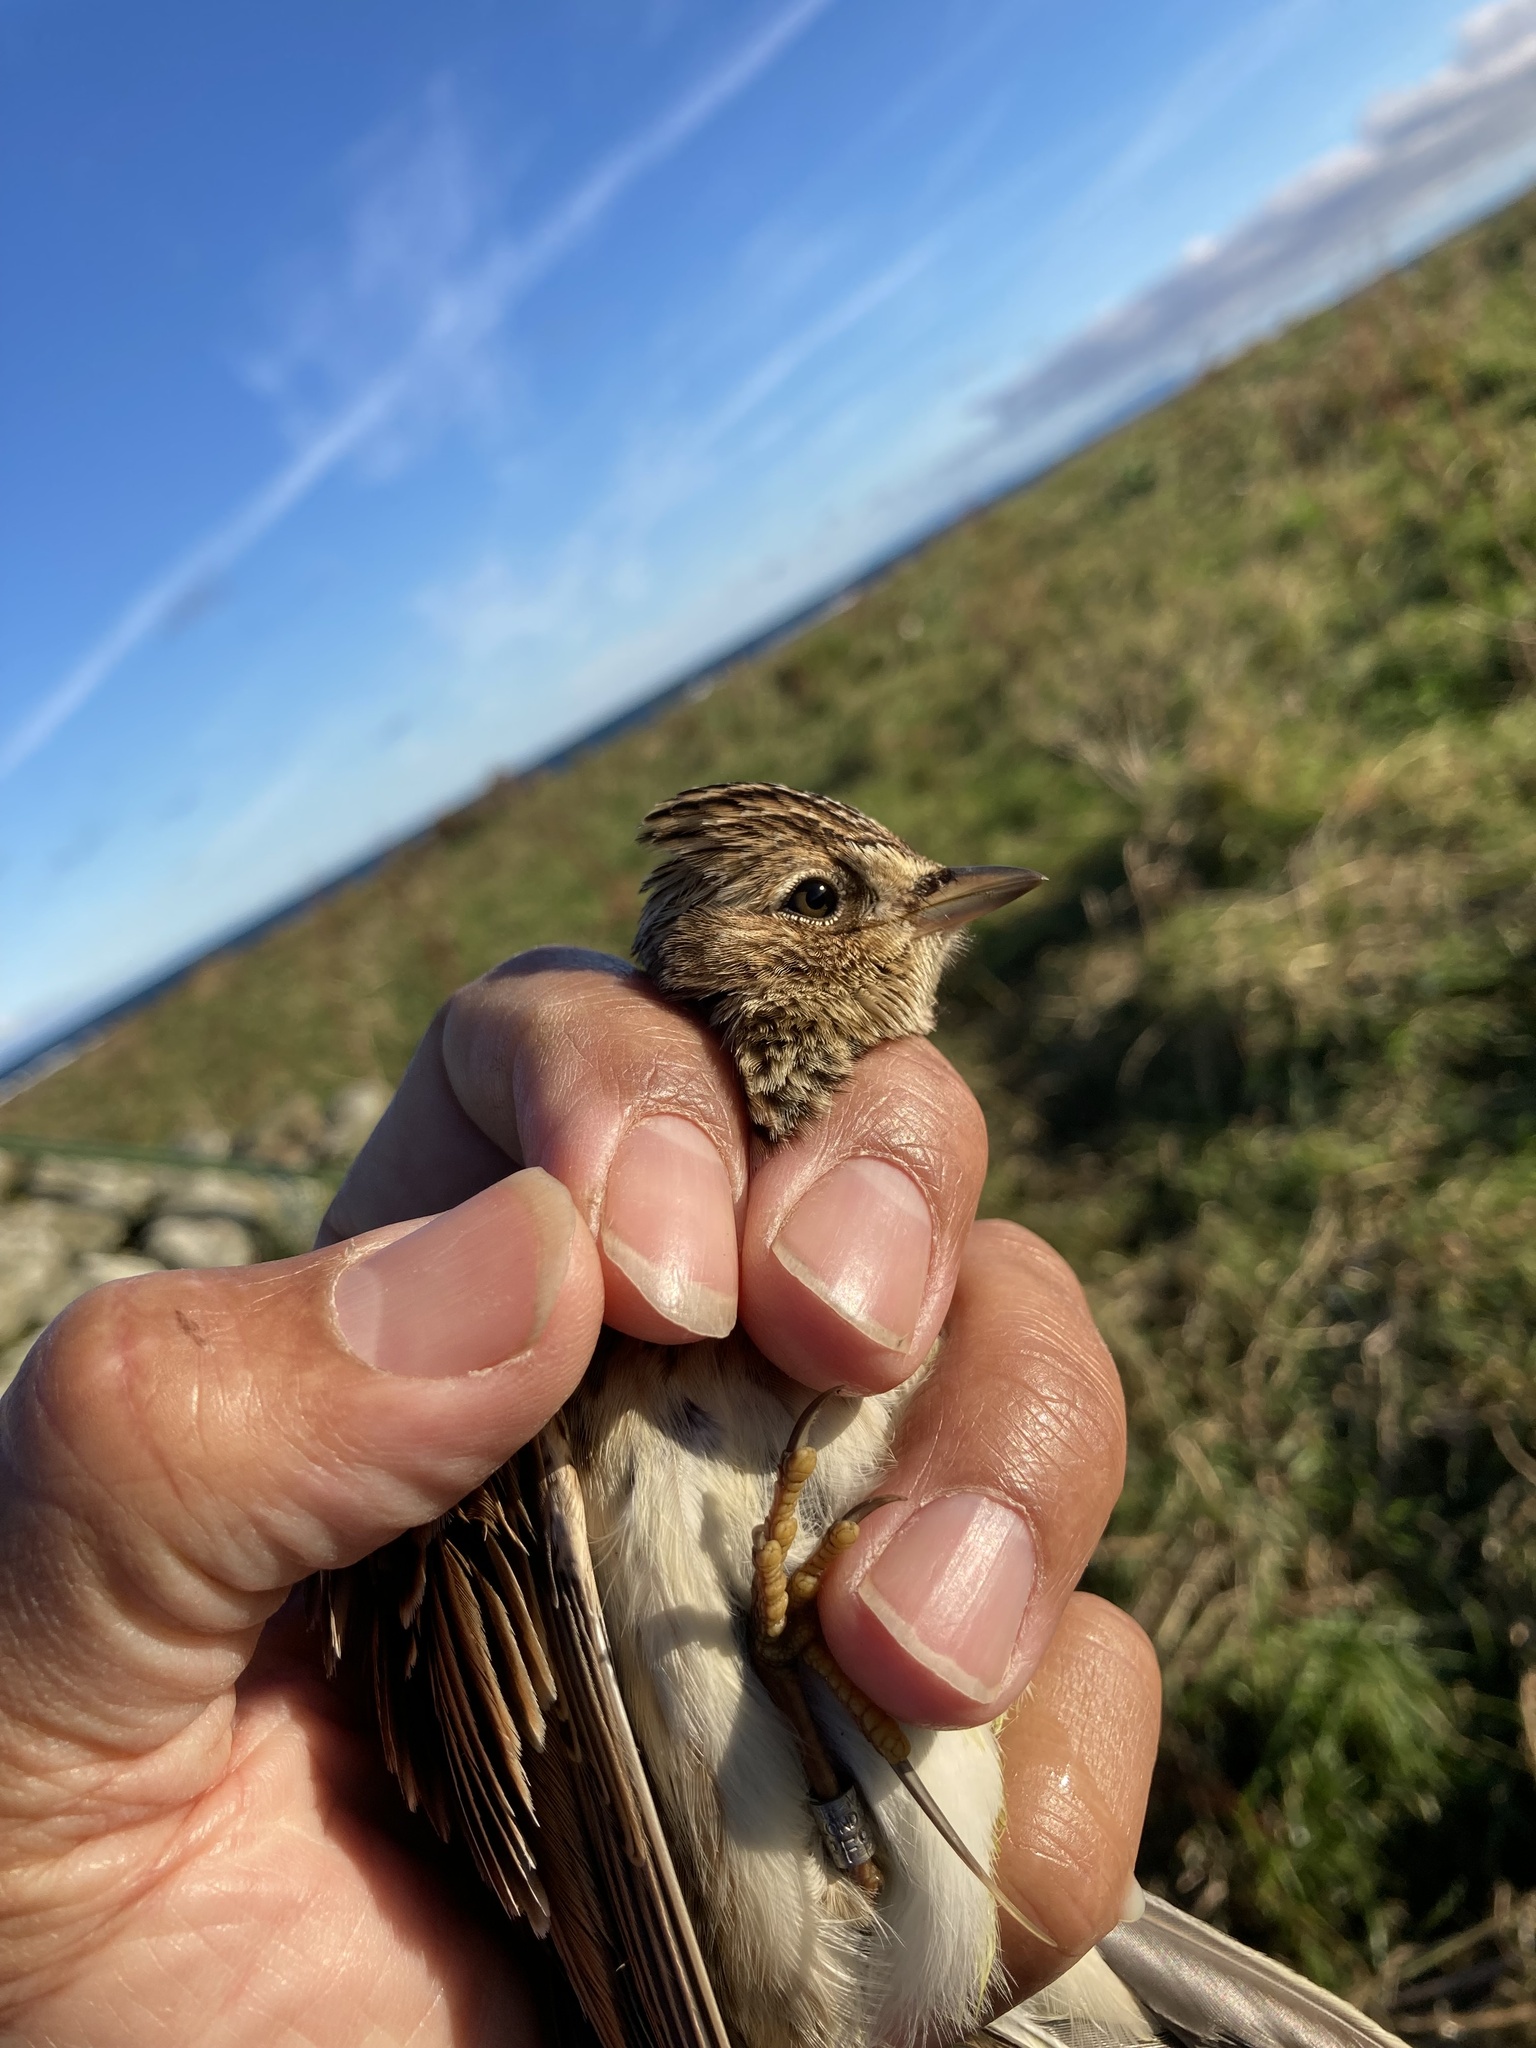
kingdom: Animalia
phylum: Chordata
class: Aves
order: Passeriformes
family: Alaudidae
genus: Alauda
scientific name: Alauda arvensis
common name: Eurasian skylark
